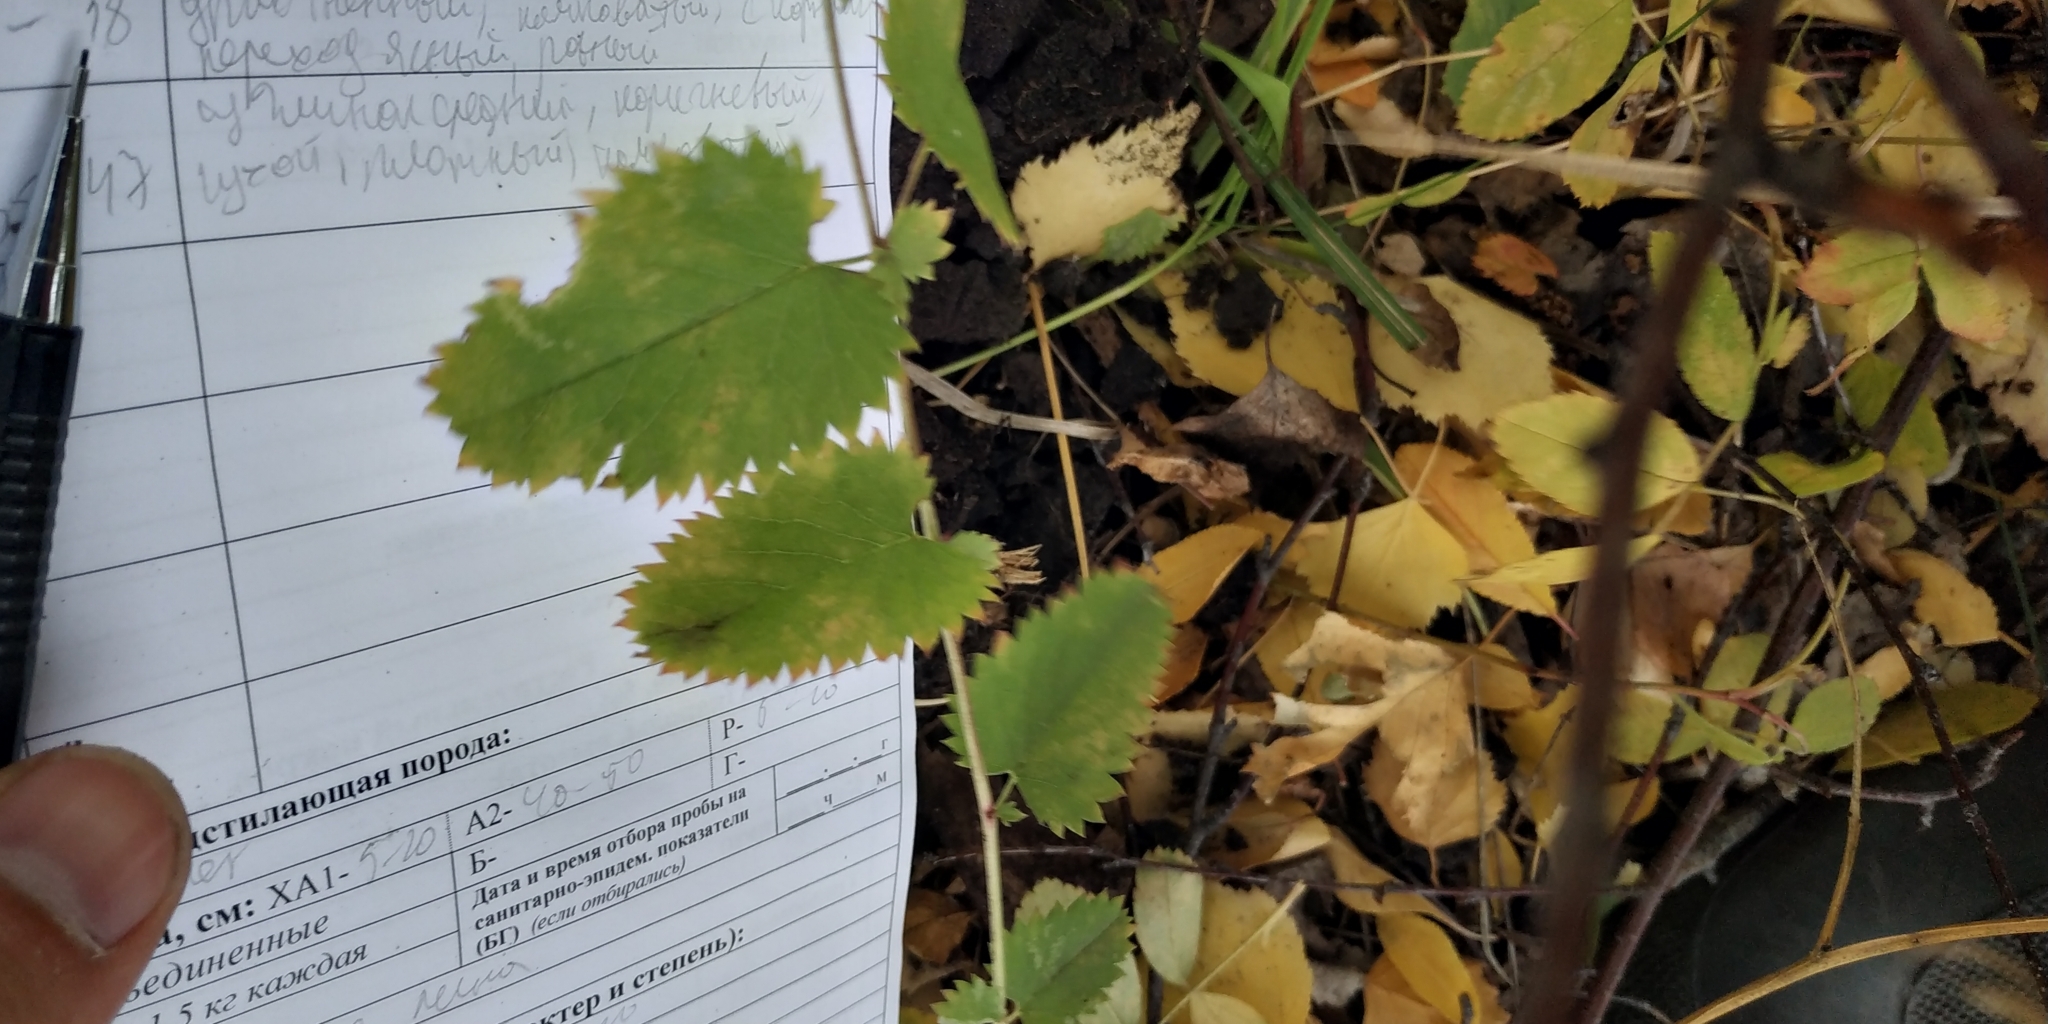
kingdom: Plantae
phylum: Tracheophyta
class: Magnoliopsida
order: Rosales
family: Rosaceae
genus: Sanguisorba
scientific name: Sanguisorba officinalis
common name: Great burnet
